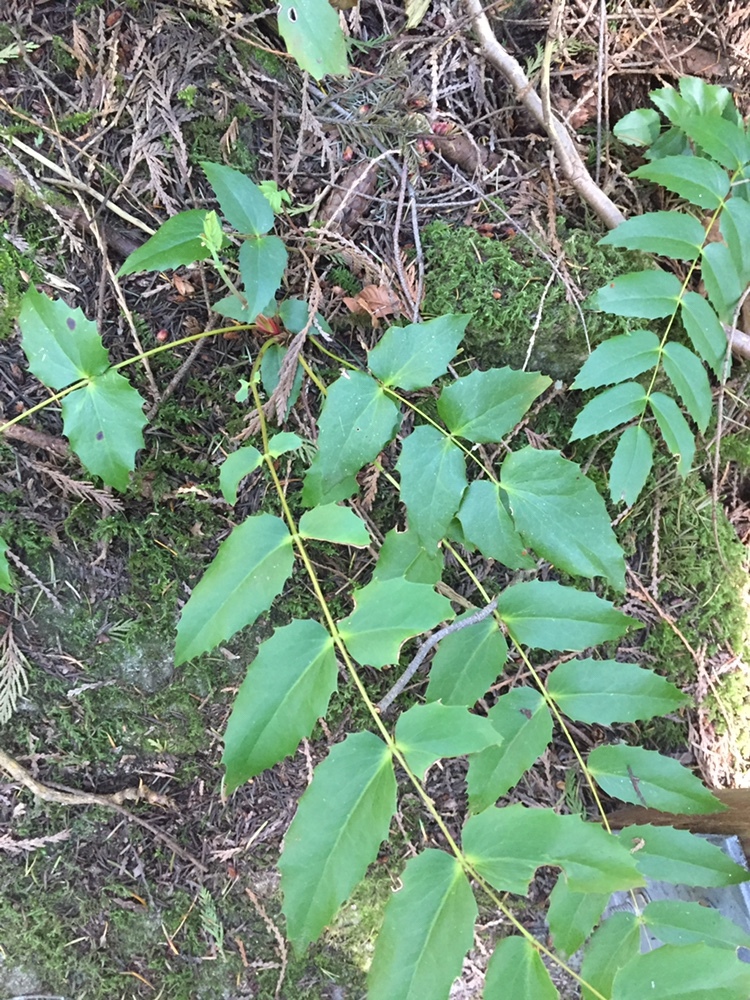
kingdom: Plantae
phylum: Tracheophyta
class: Magnoliopsida
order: Ranunculales
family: Berberidaceae
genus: Mahonia
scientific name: Mahonia nervosa
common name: Cascade oregon-grape
